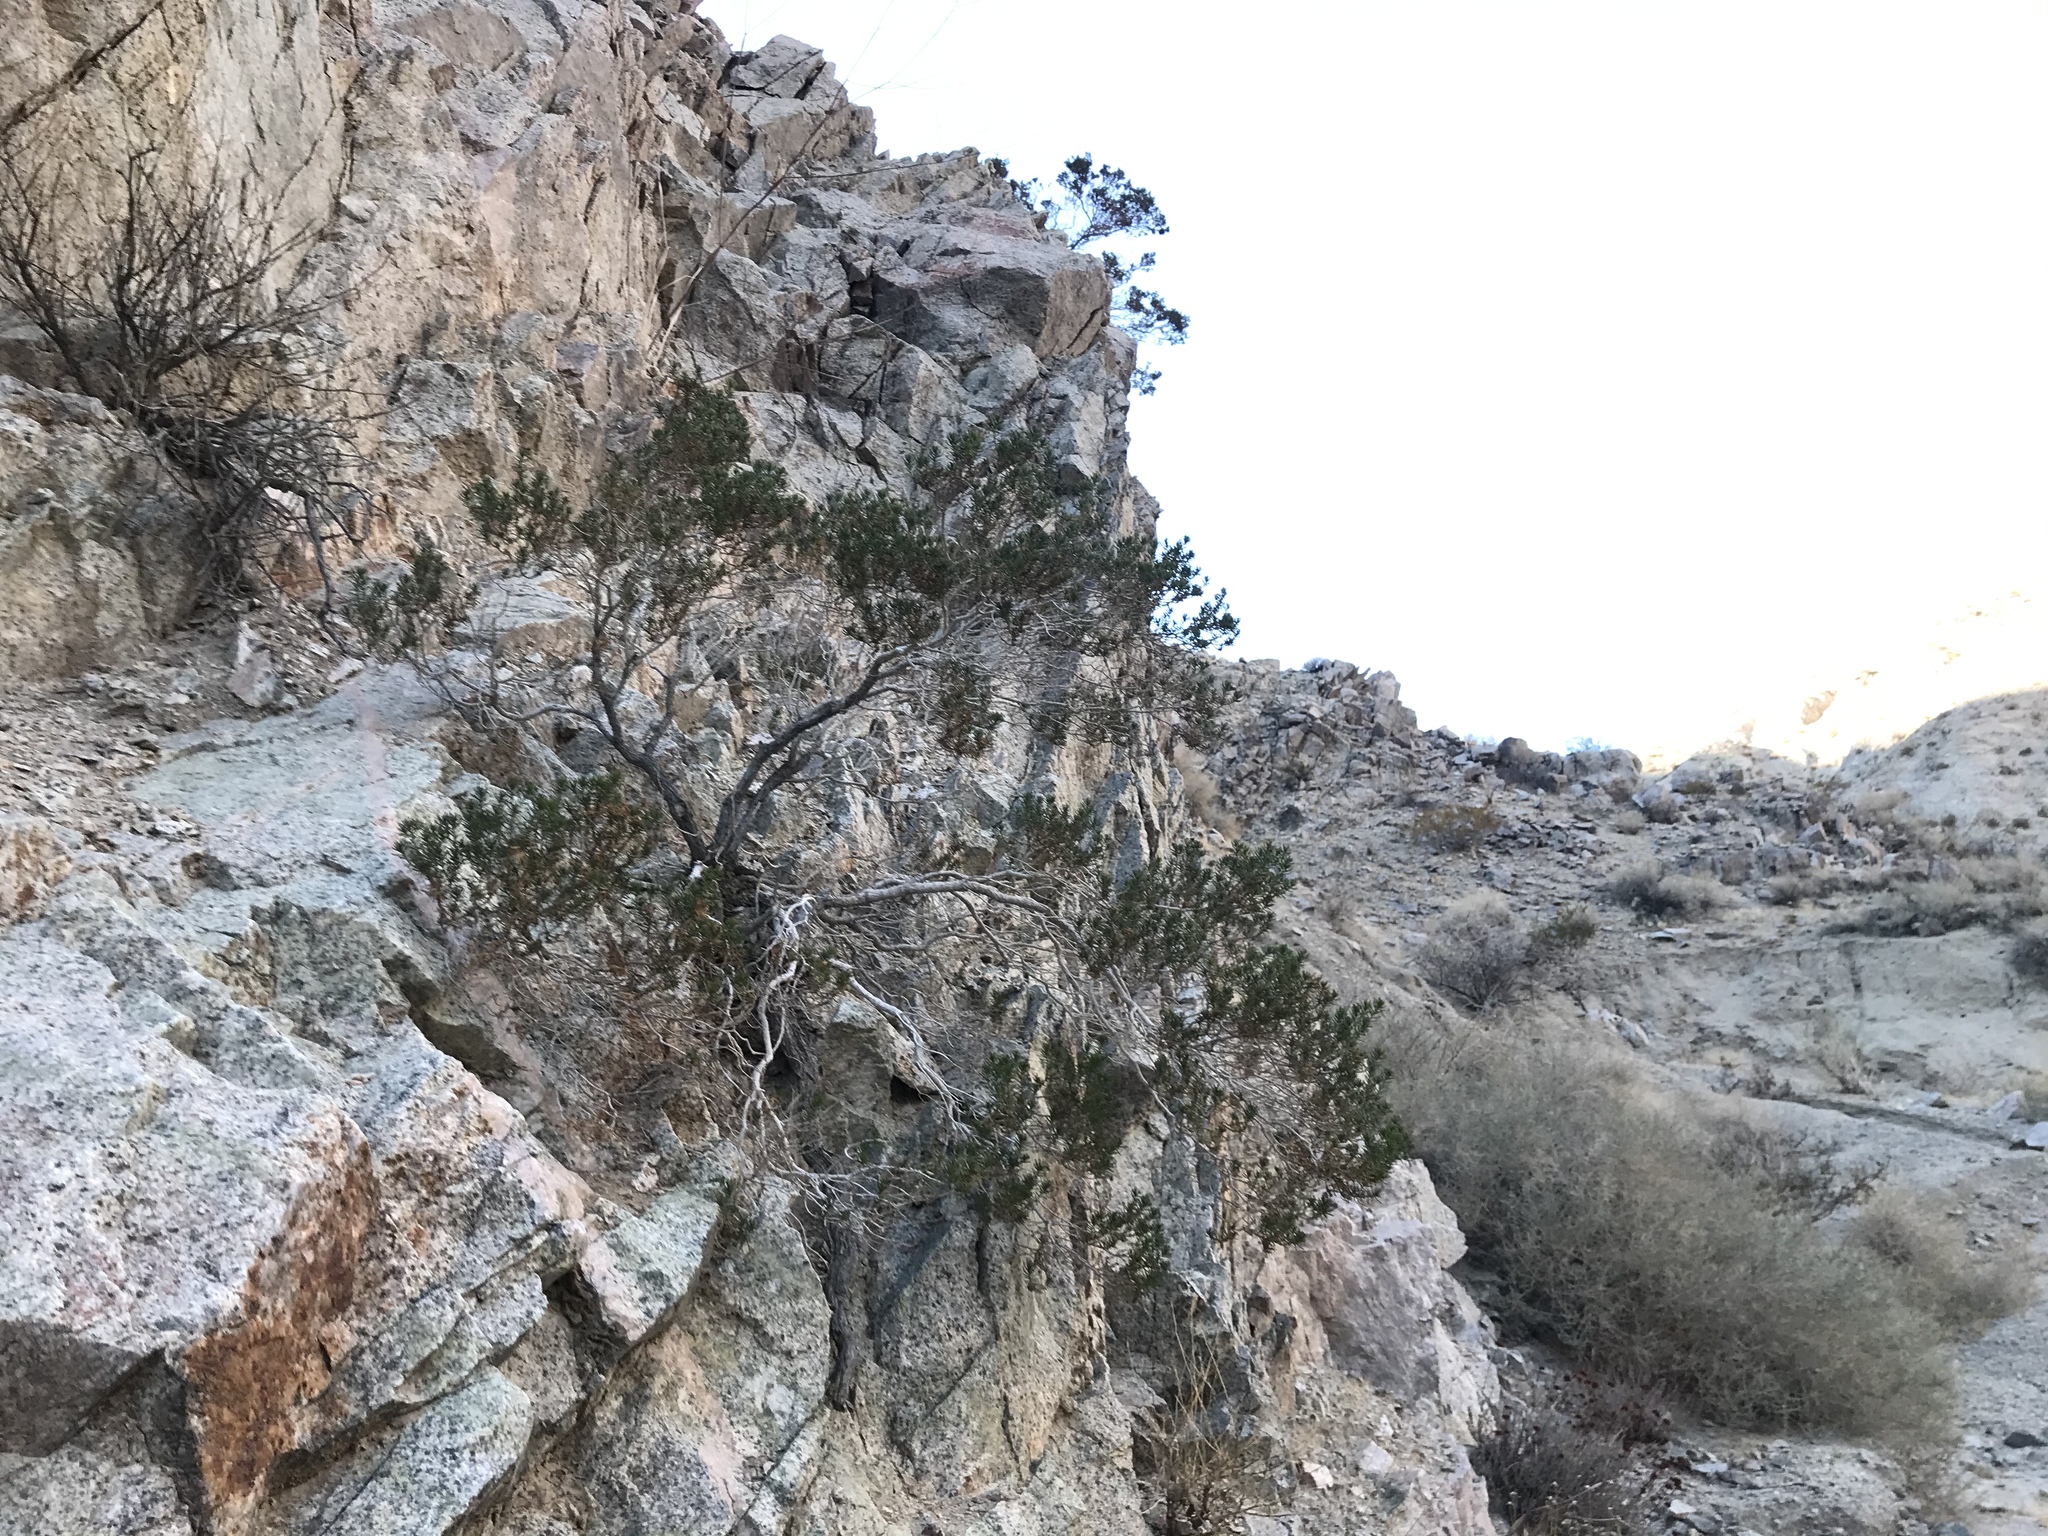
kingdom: Plantae
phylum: Tracheophyta
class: Magnoliopsida
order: Asterales
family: Asteraceae
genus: Peucephyllum
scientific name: Peucephyllum schottii
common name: Pygmy-cedar
